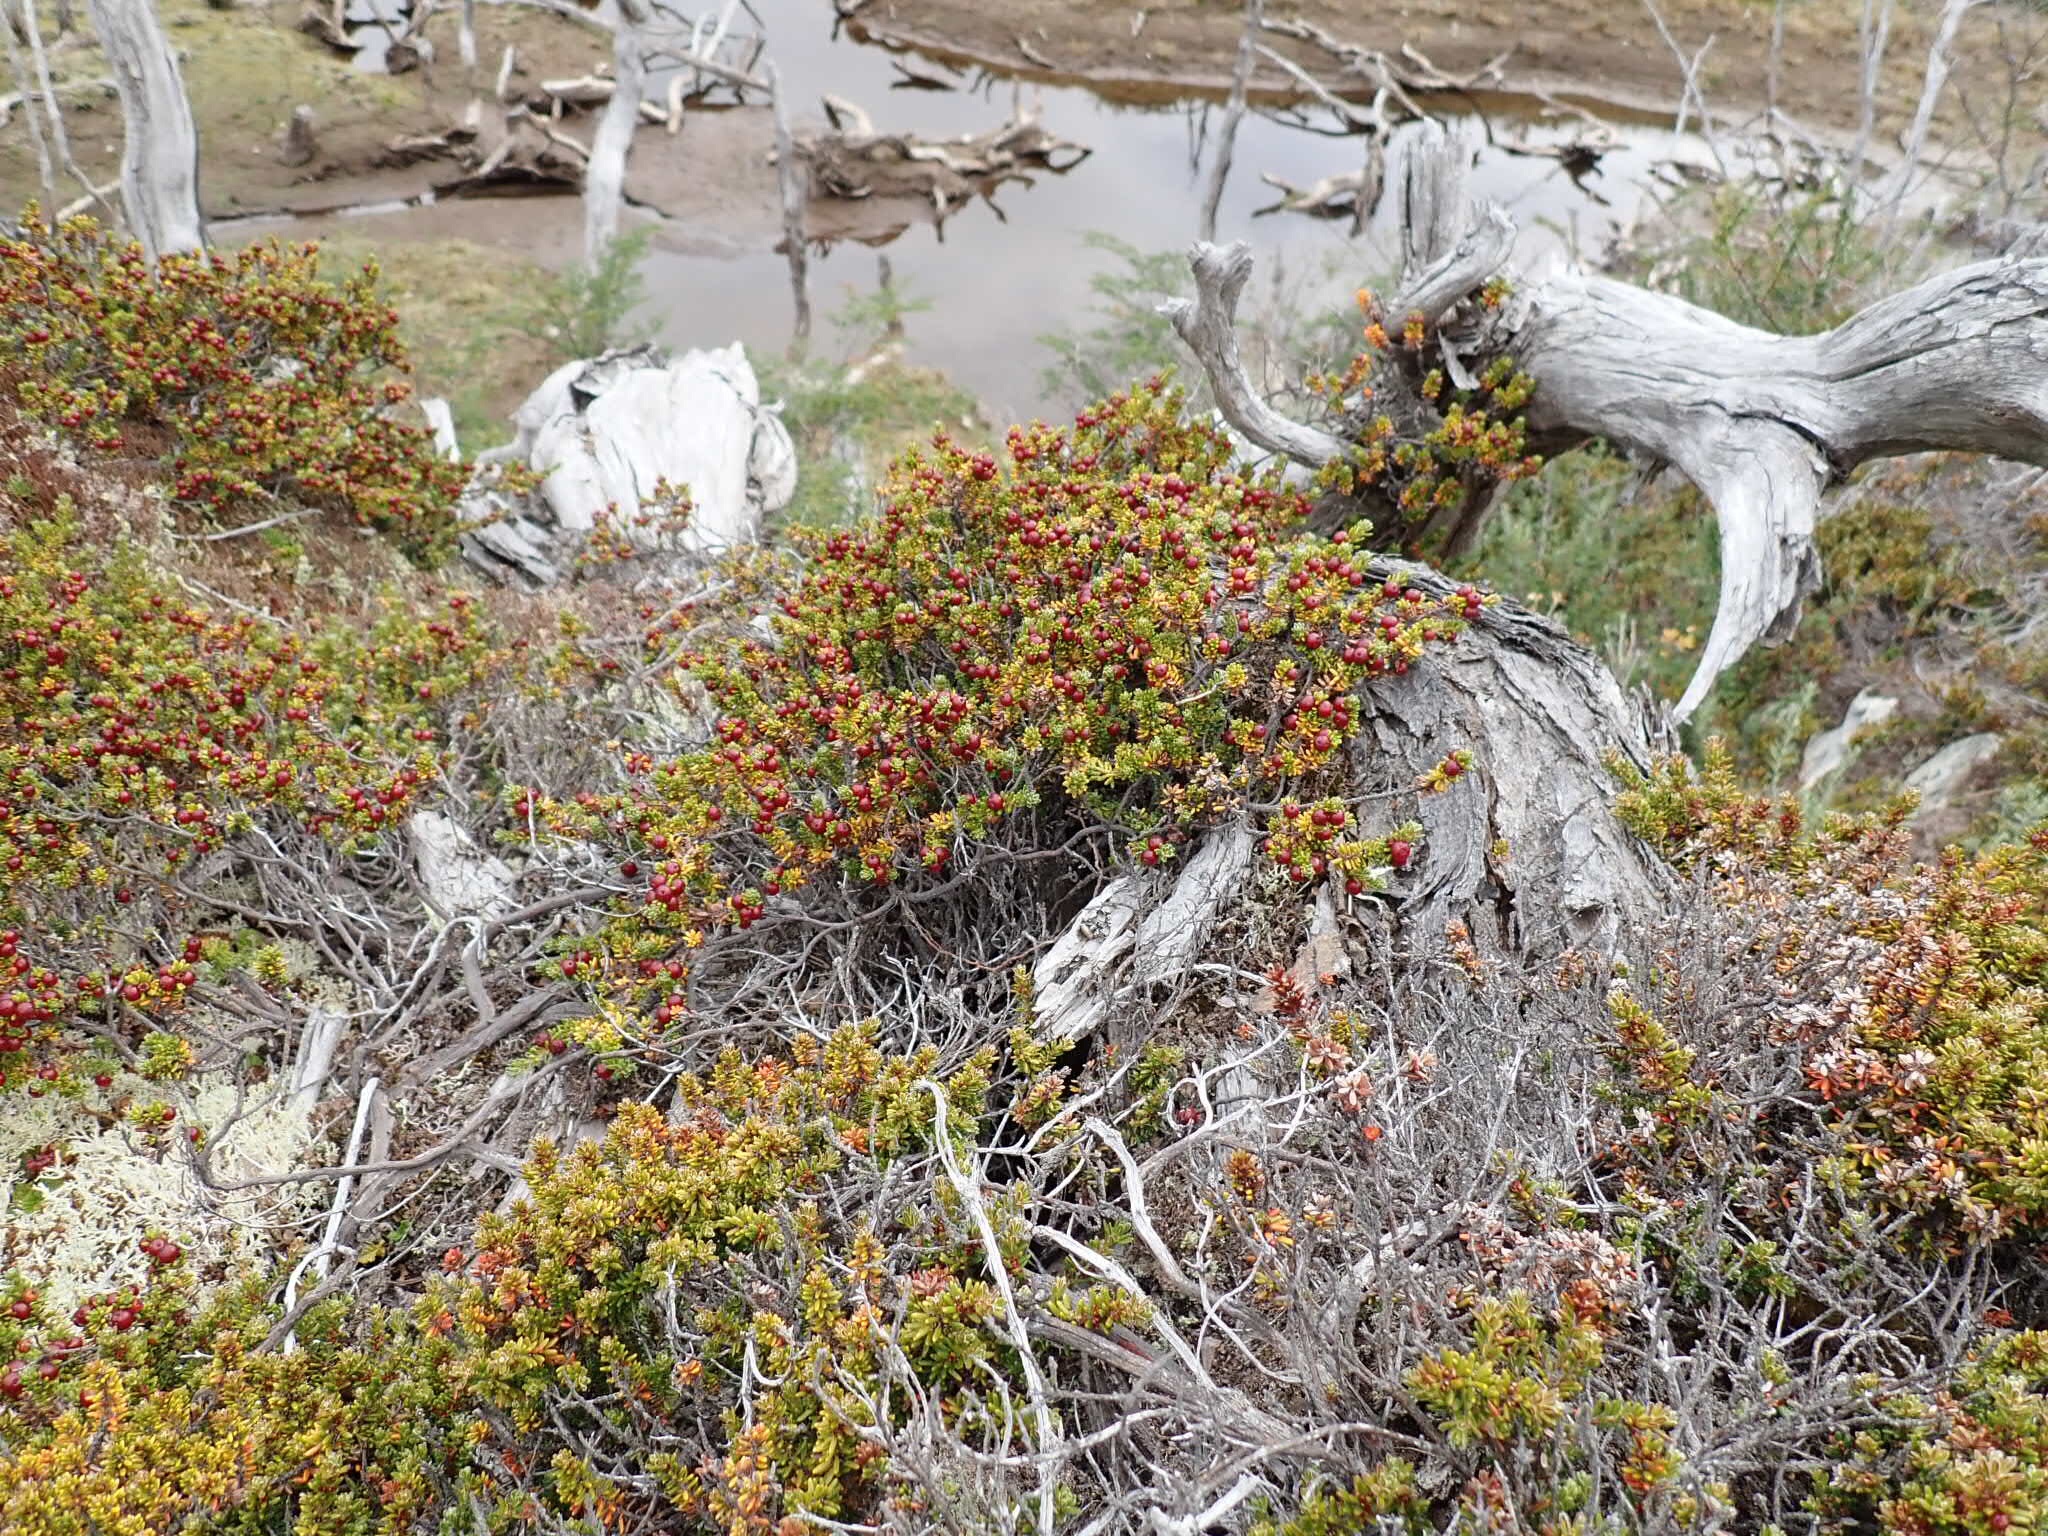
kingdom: Plantae
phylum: Tracheophyta
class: Magnoliopsida
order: Ericales
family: Ericaceae
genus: Empetrum
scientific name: Empetrum rubrum
